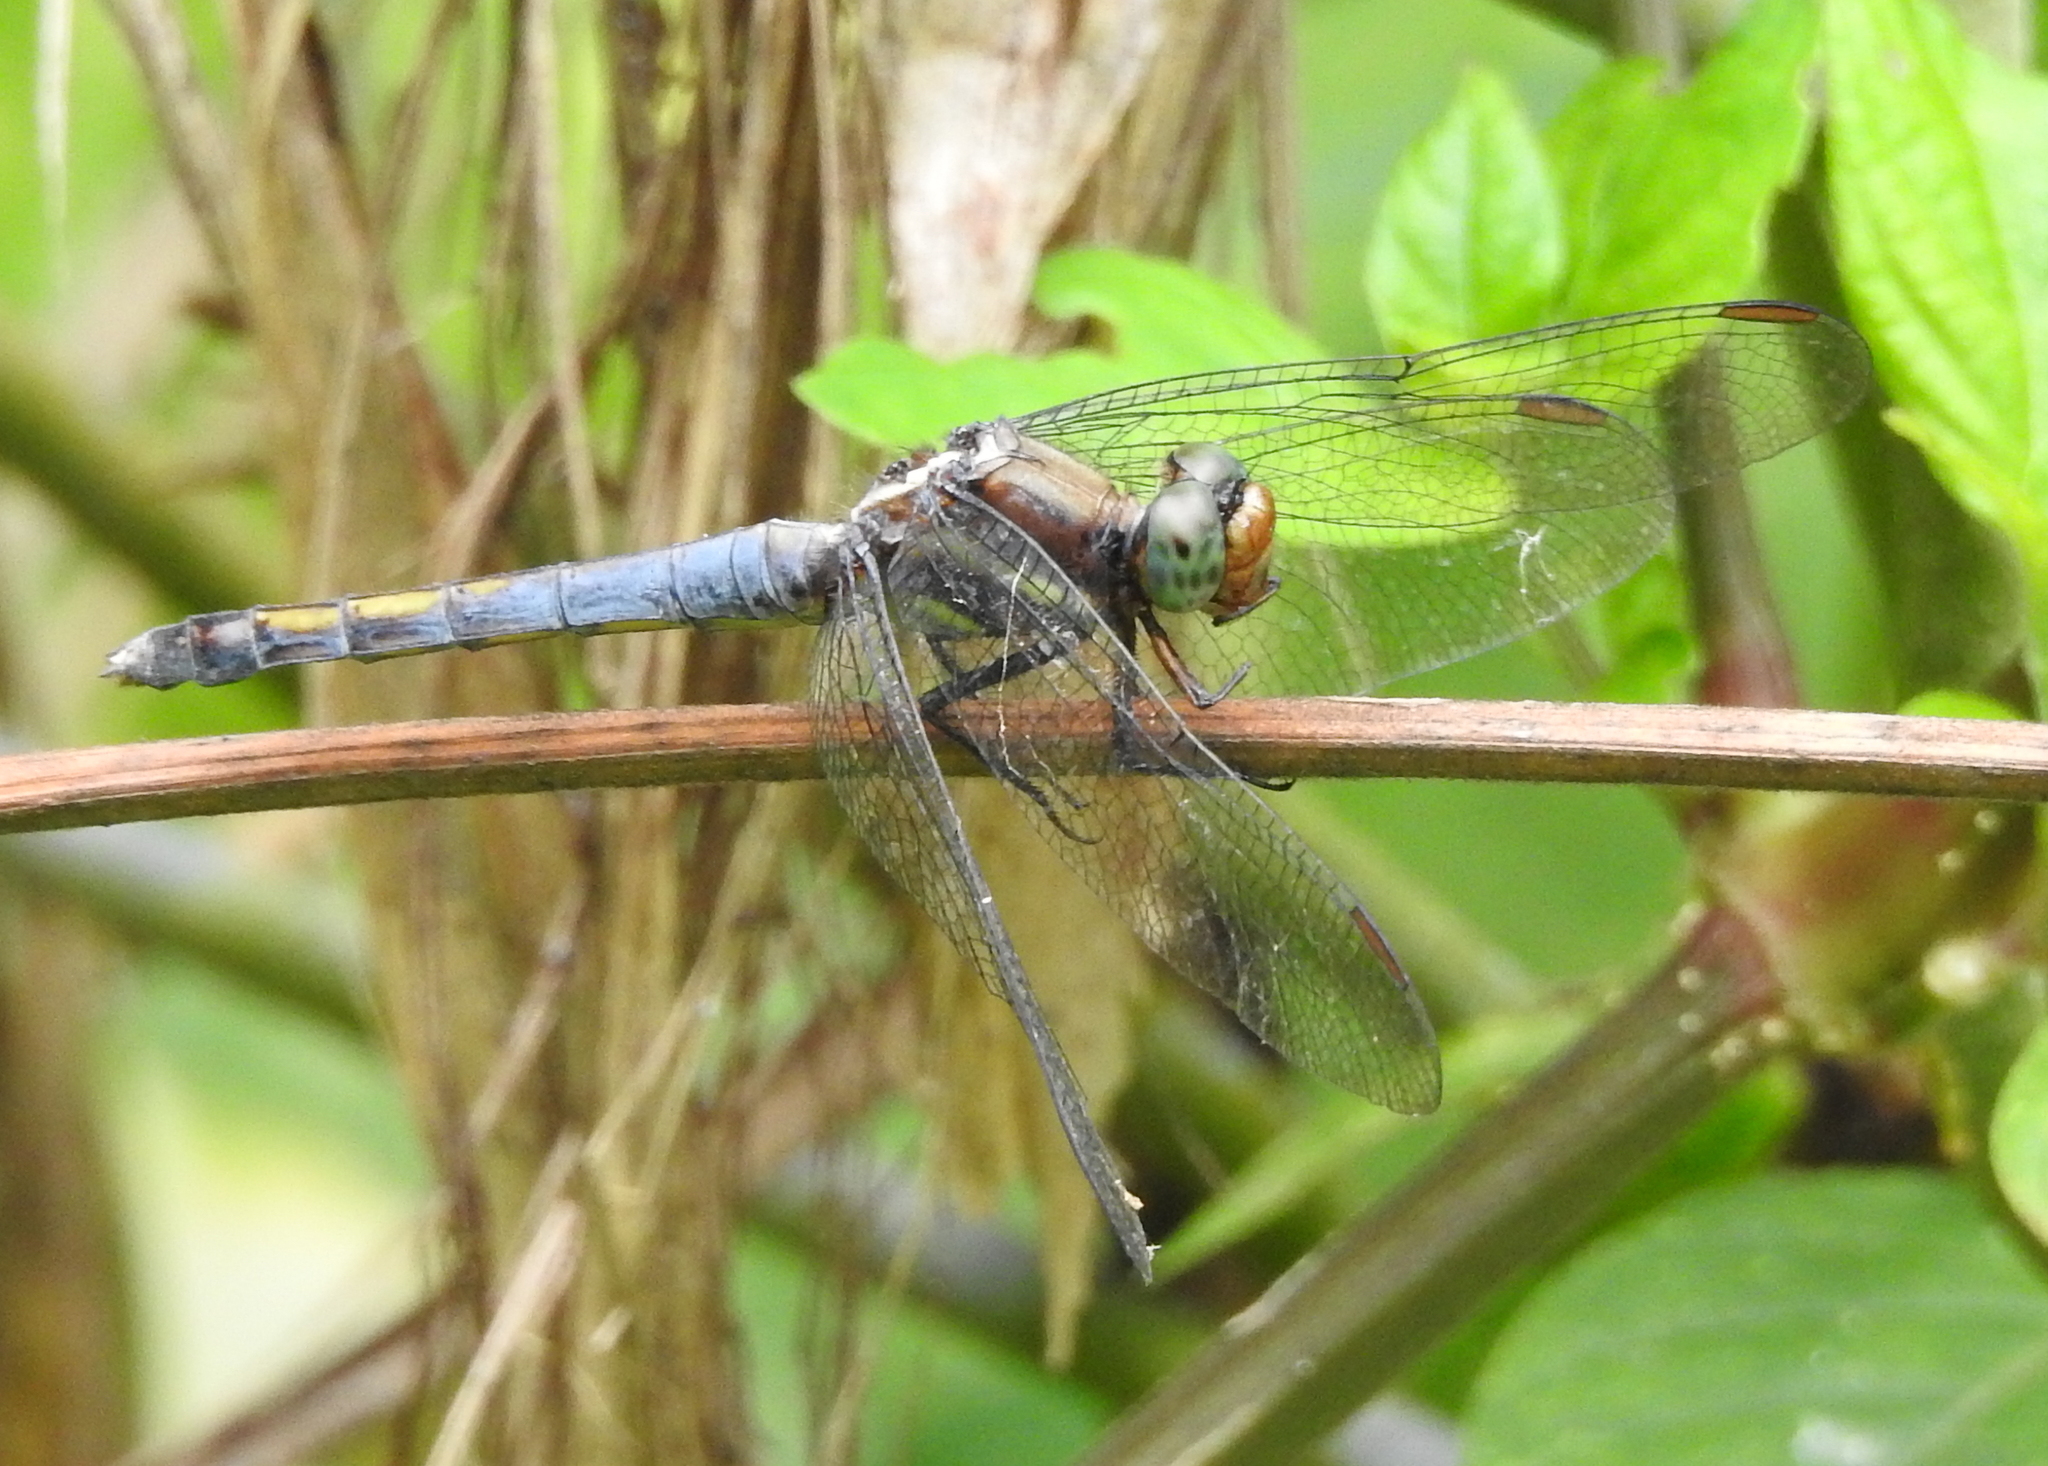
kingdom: Animalia
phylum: Arthropoda
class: Insecta
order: Odonata
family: Libellulidae
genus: Orthetrum
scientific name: Orthetrum glaucum
